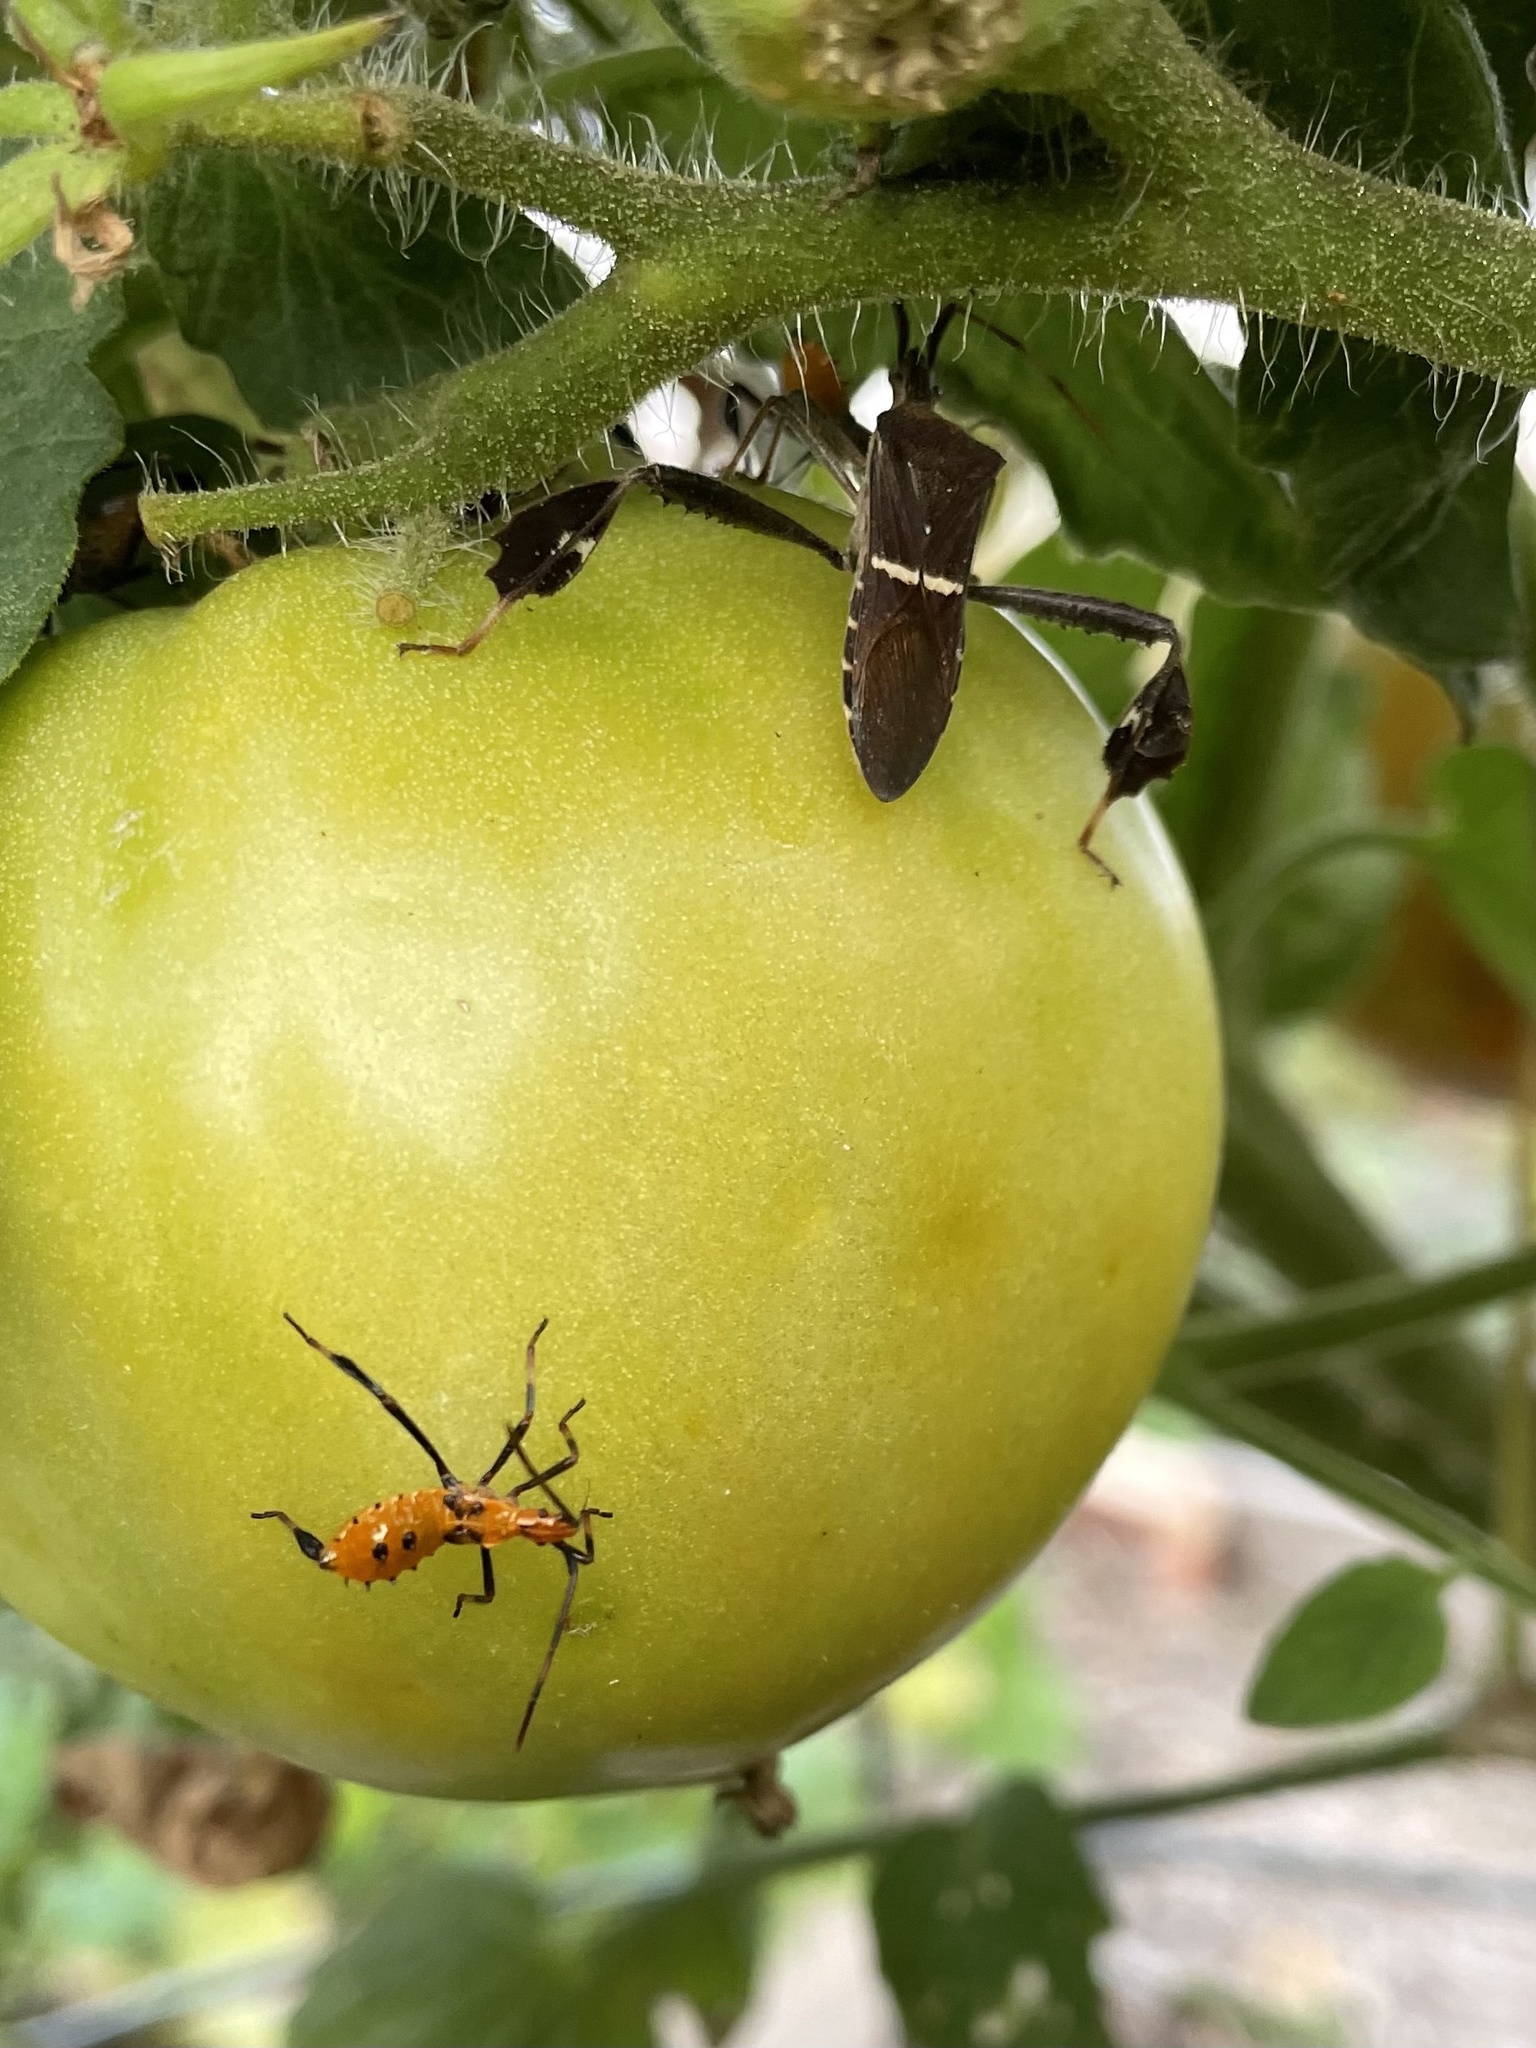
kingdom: Animalia
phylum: Arthropoda
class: Insecta
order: Hemiptera
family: Coreidae
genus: Leptoglossus
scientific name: Leptoglossus phyllopus
